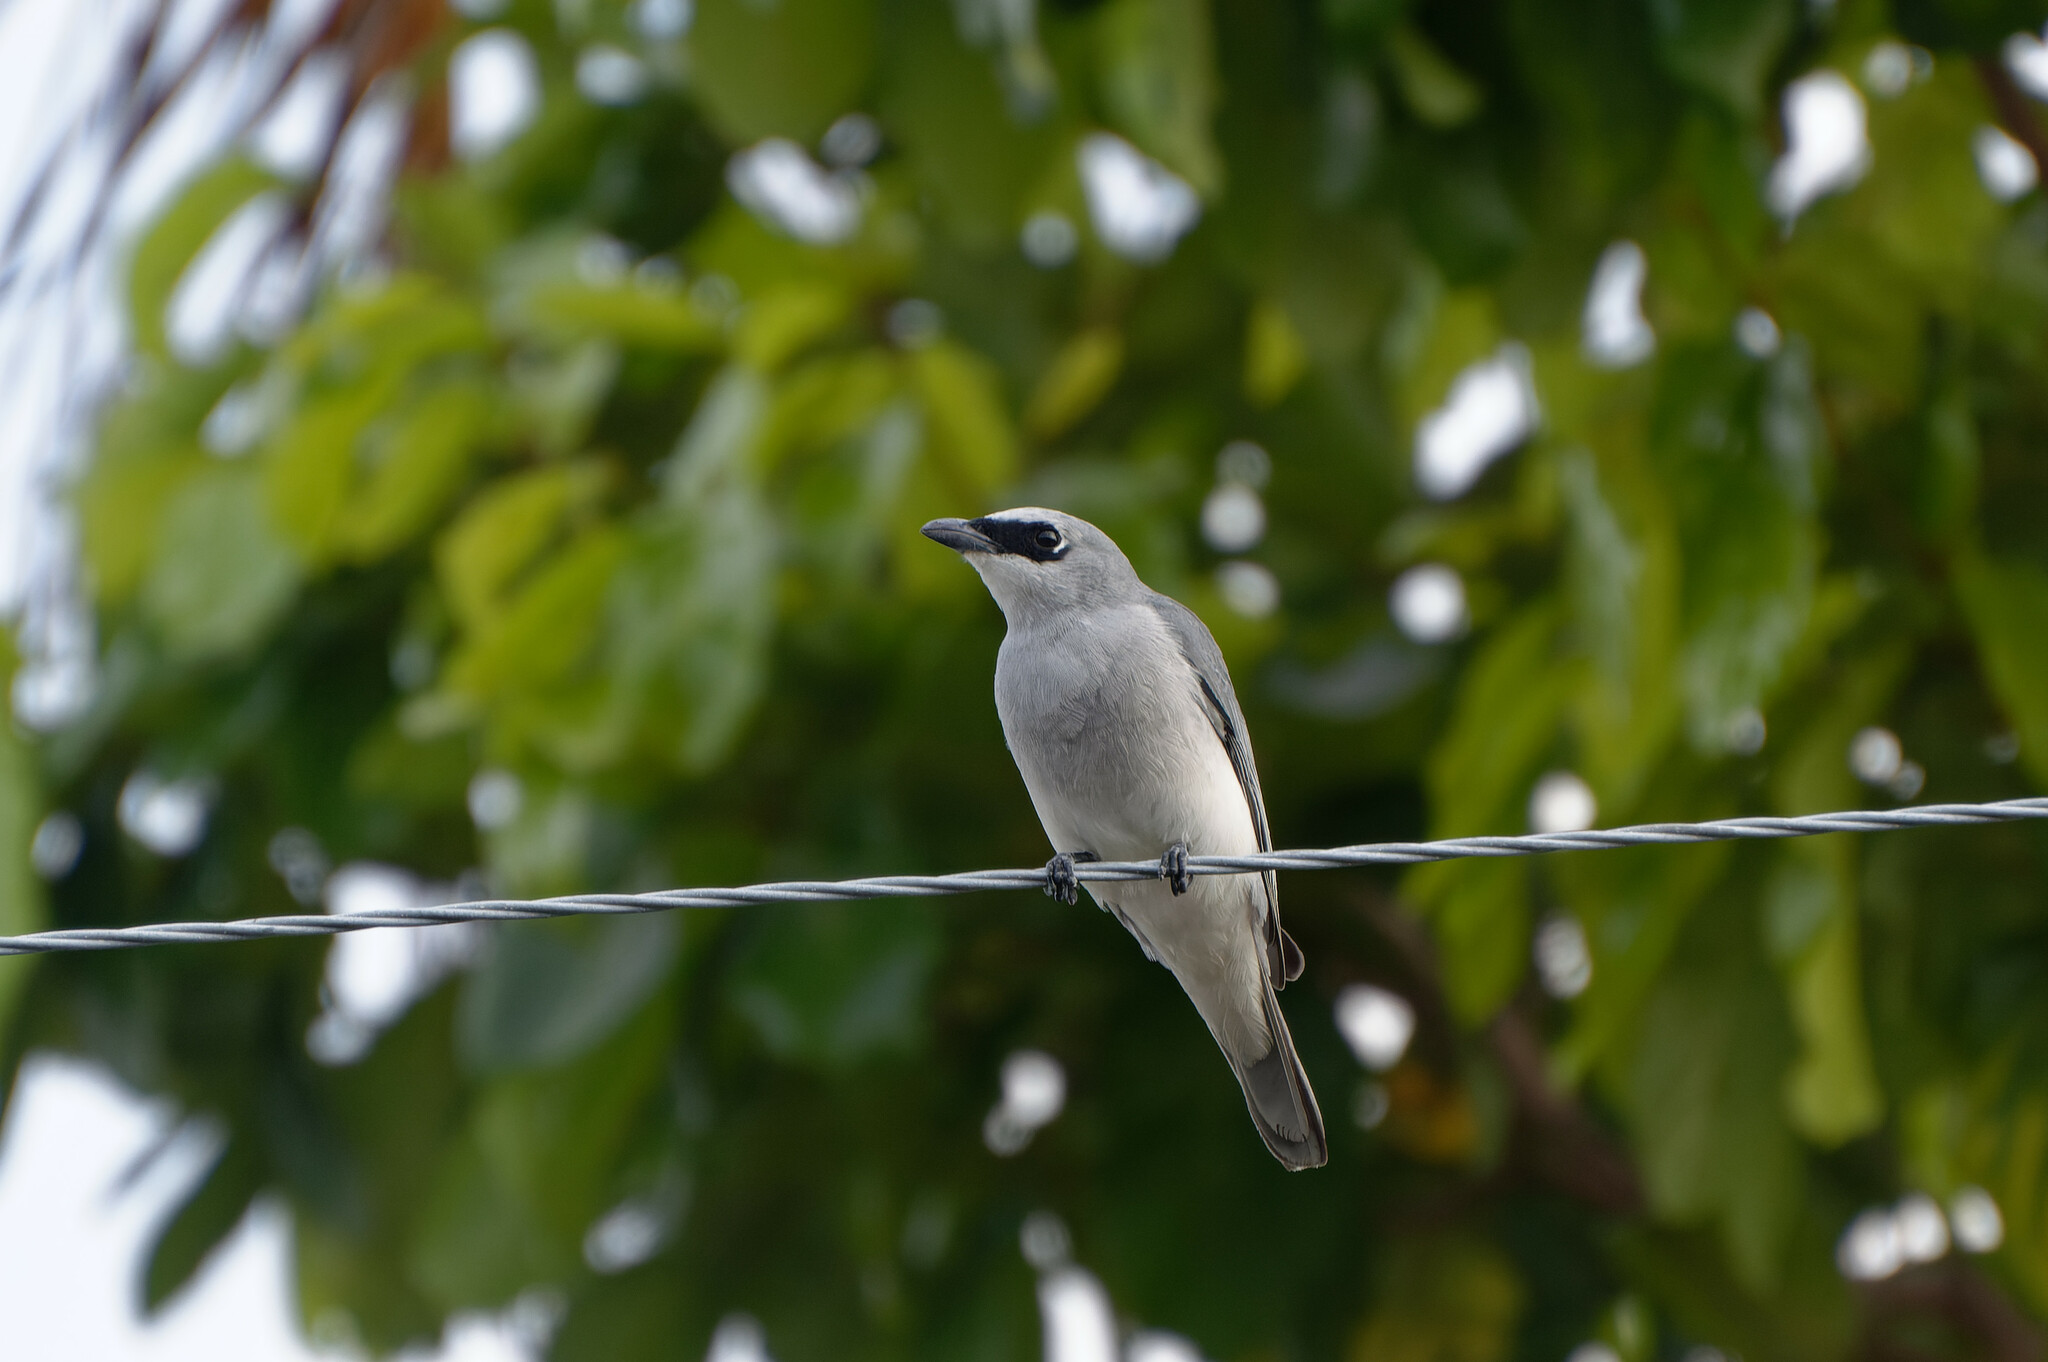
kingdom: Animalia
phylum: Chordata
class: Aves
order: Passeriformes
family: Campephagidae
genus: Coracina
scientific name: Coracina papuensis
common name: White-bellied cuckooshrike
